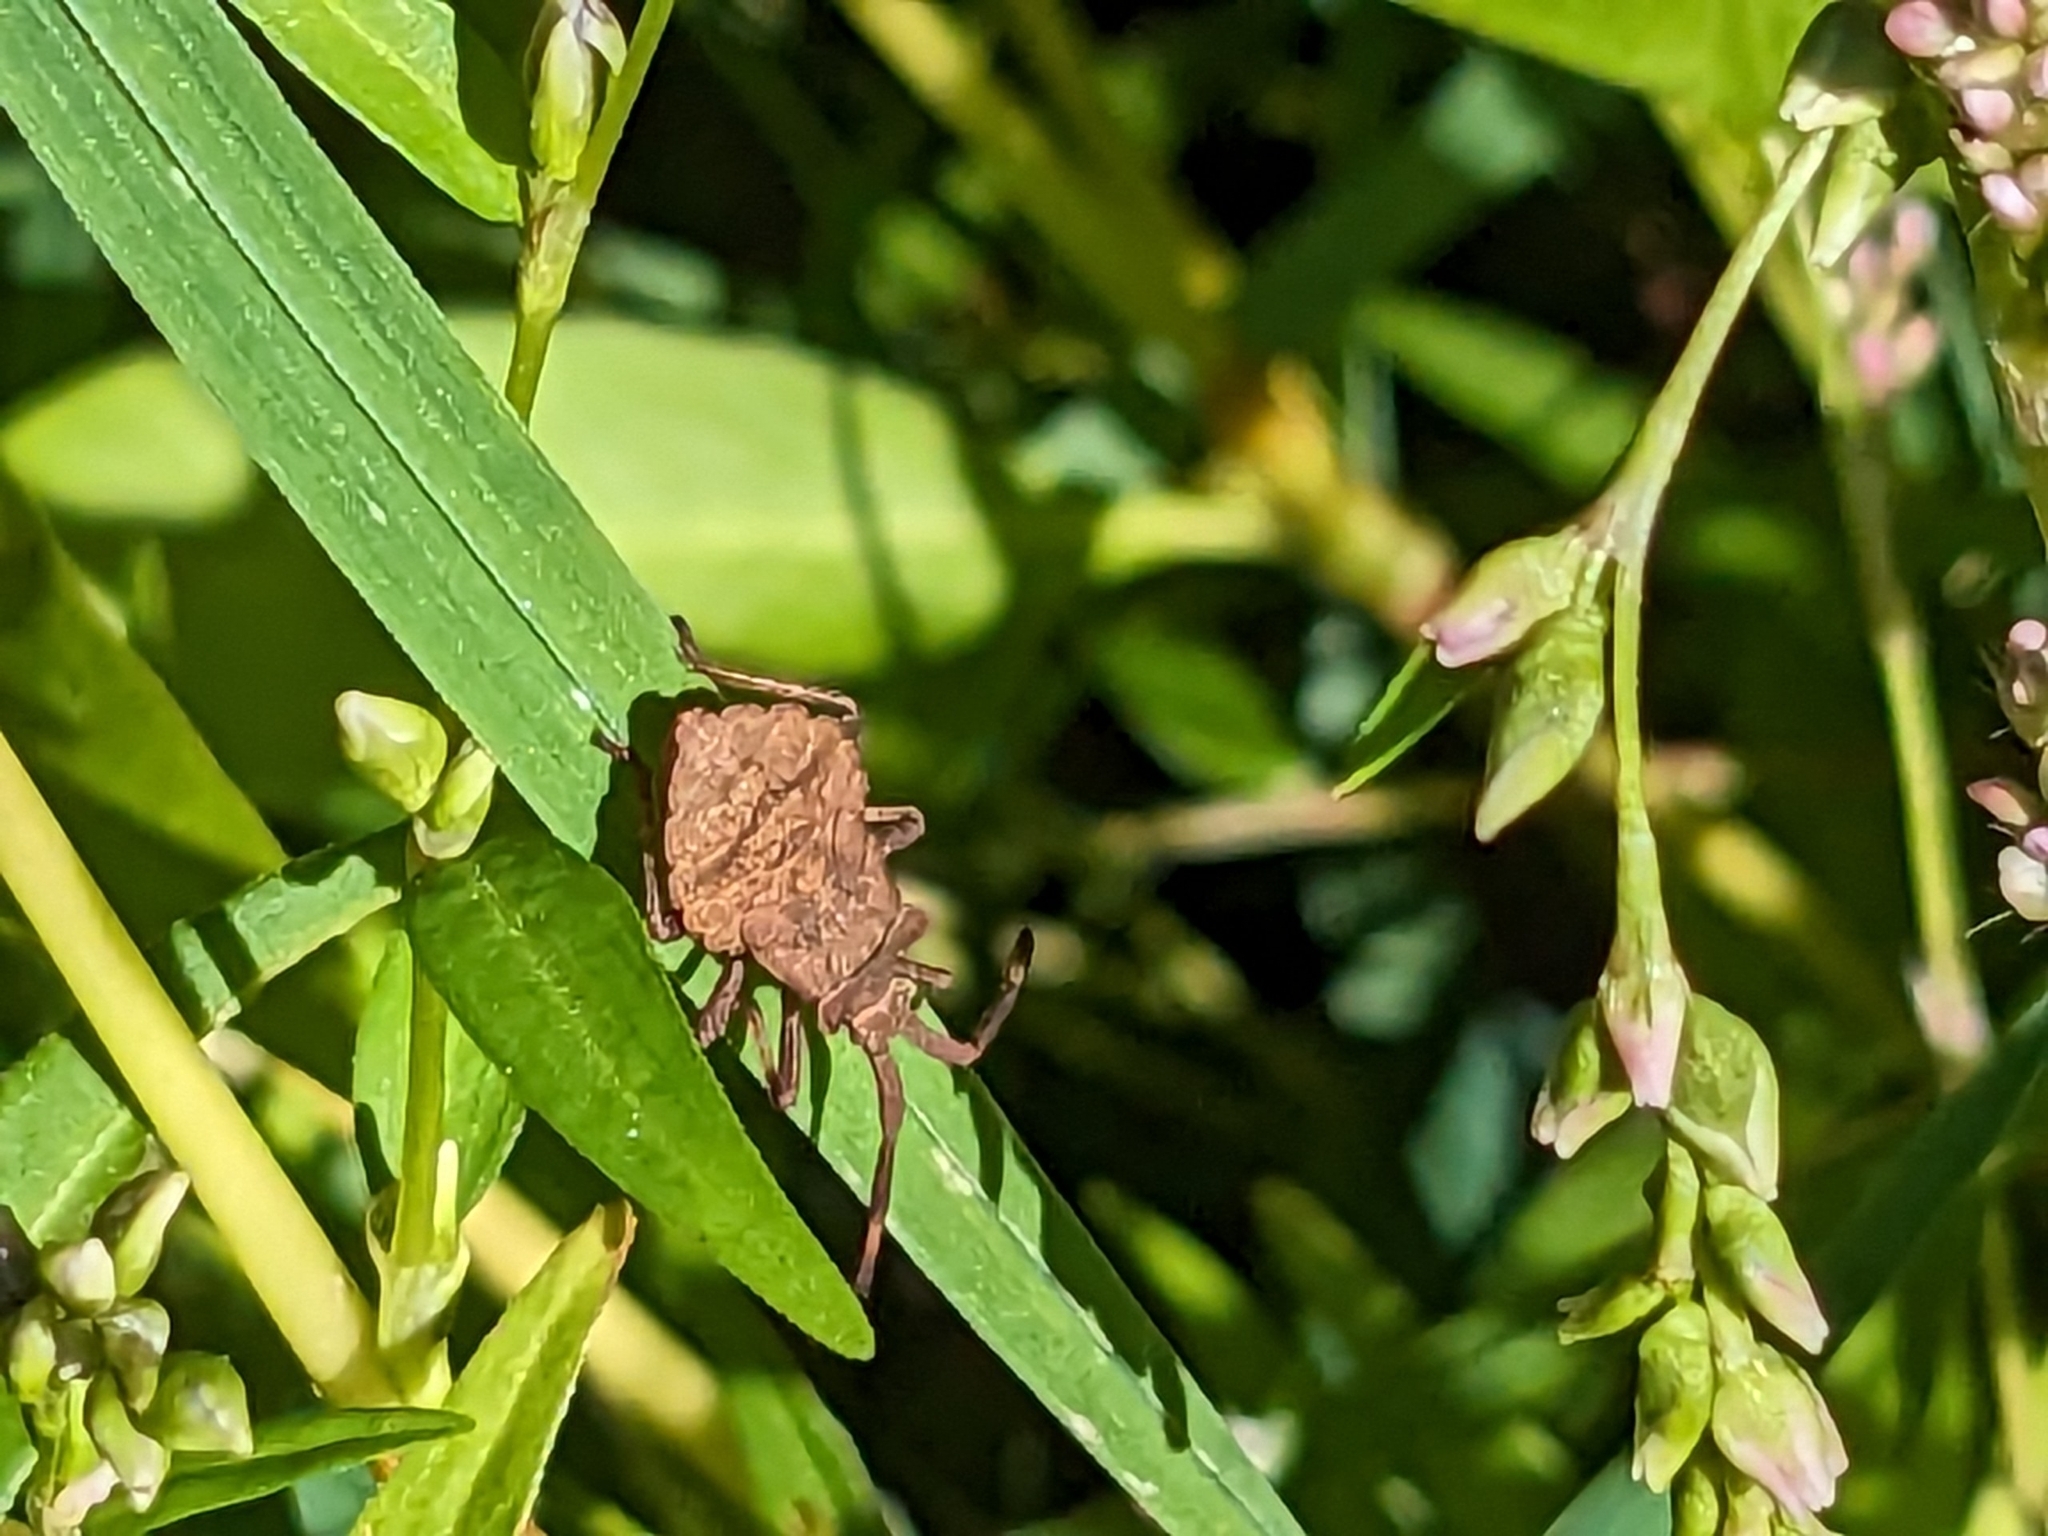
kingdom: Animalia
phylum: Arthropoda
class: Insecta
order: Hemiptera
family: Coreidae
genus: Coreus
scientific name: Coreus marginatus
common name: Dock bug
